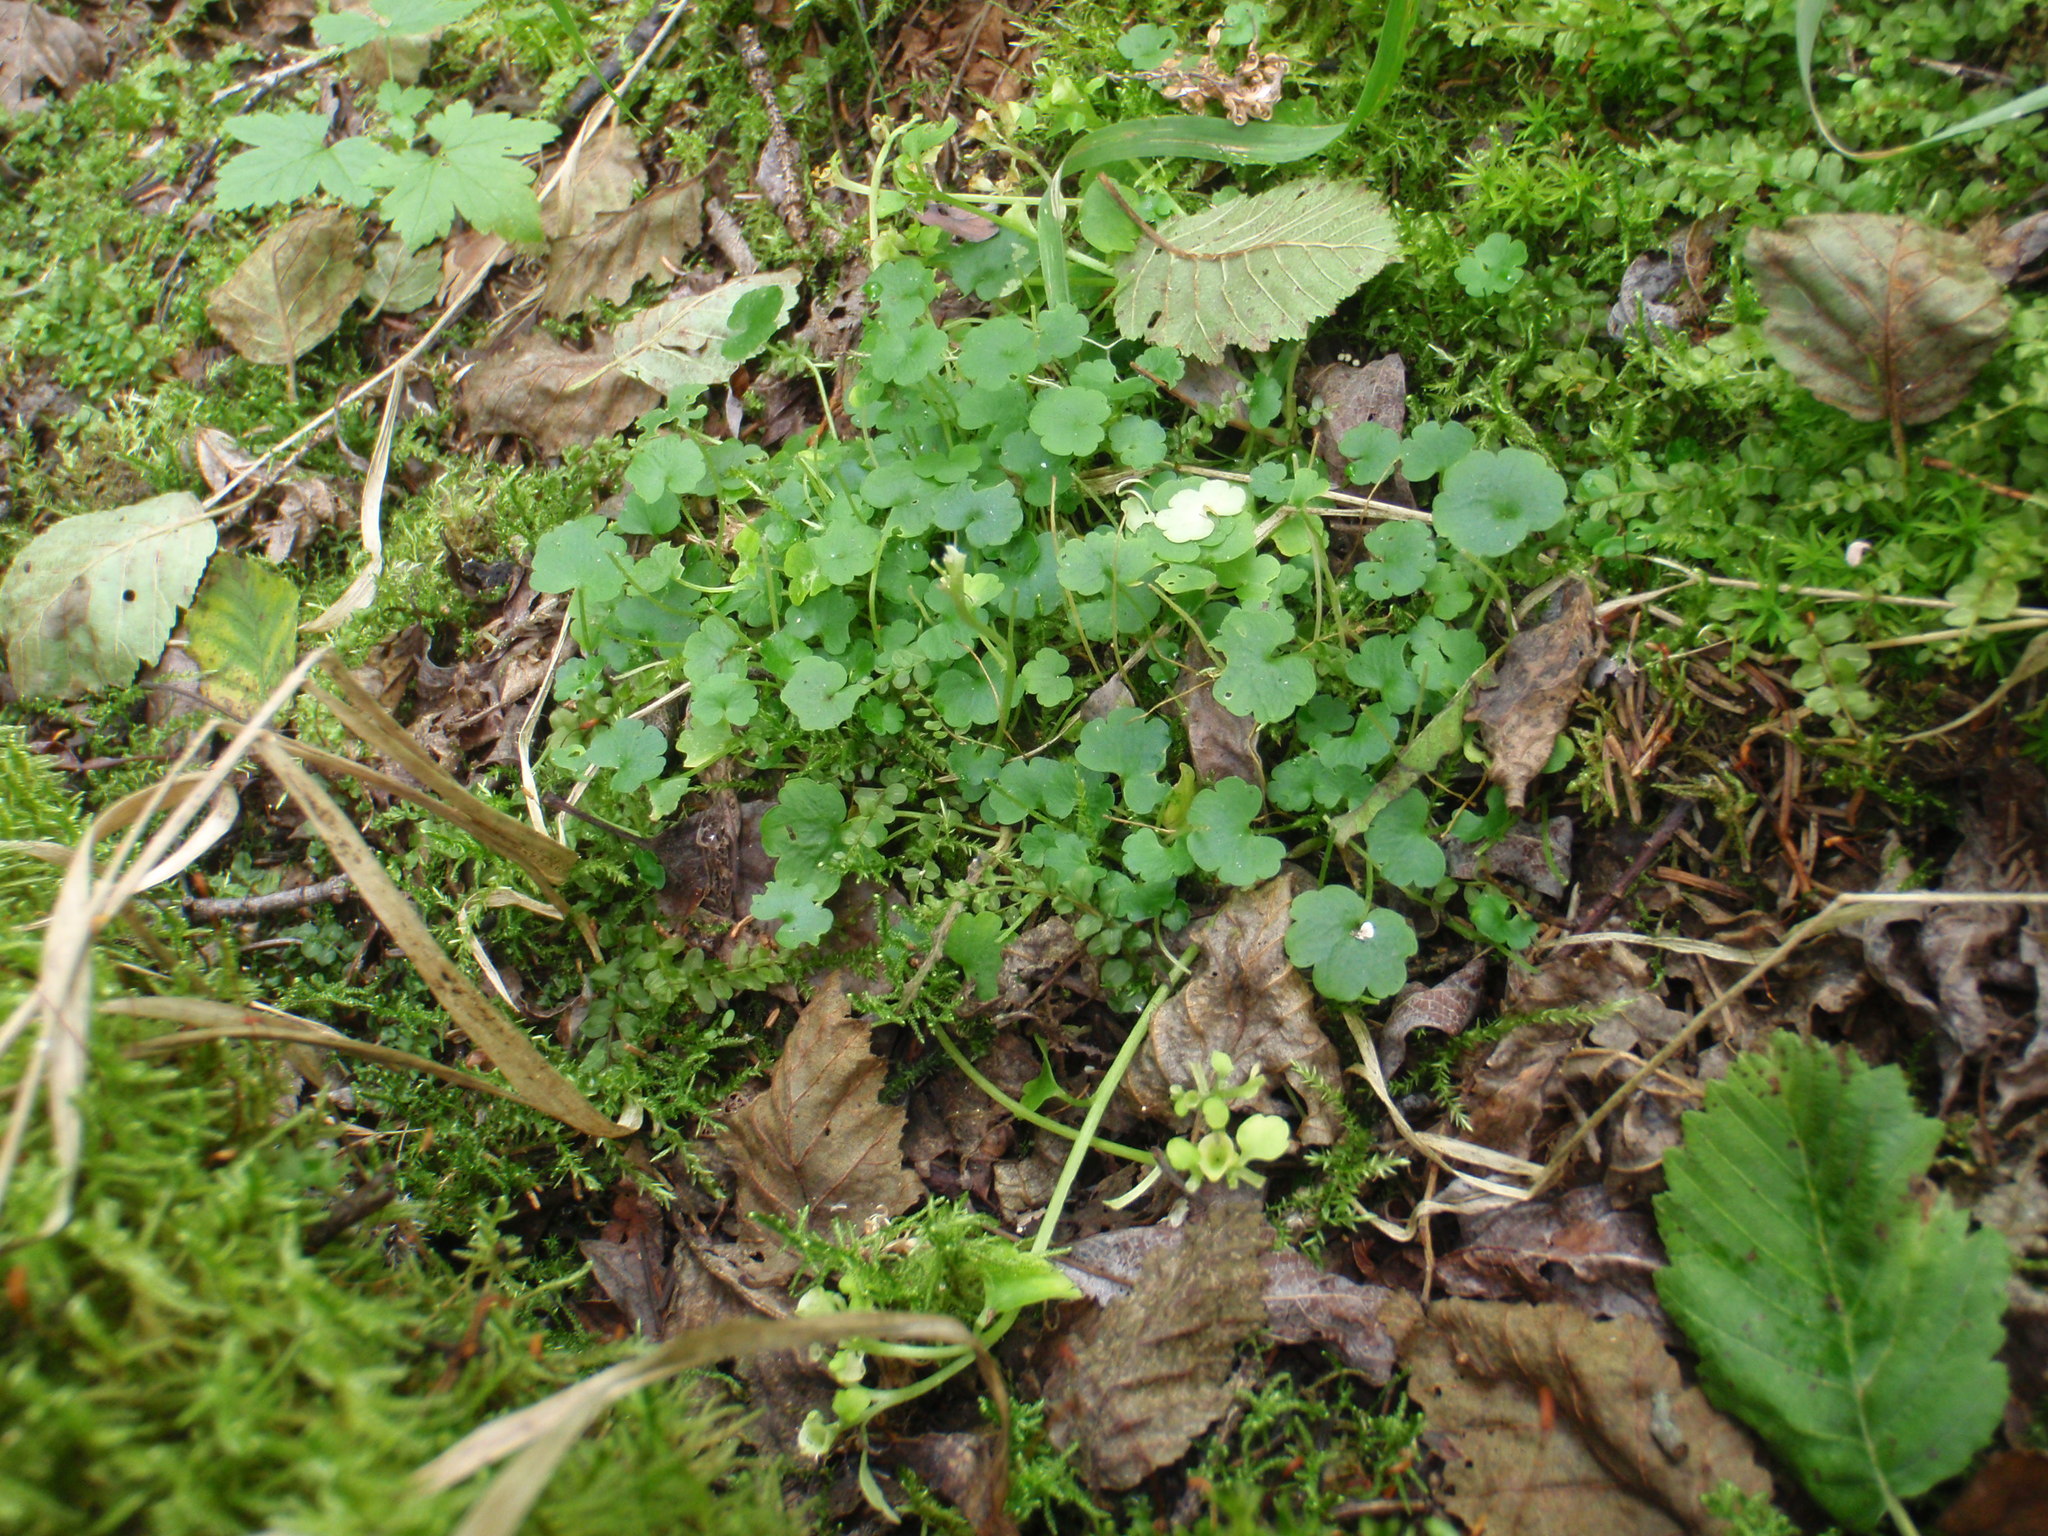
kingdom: Plantae
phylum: Tracheophyta
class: Magnoliopsida
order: Saxifragales
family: Saxifragaceae
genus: Chrysosplenium
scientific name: Chrysosplenium tetrandrum
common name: Green saxifrage
